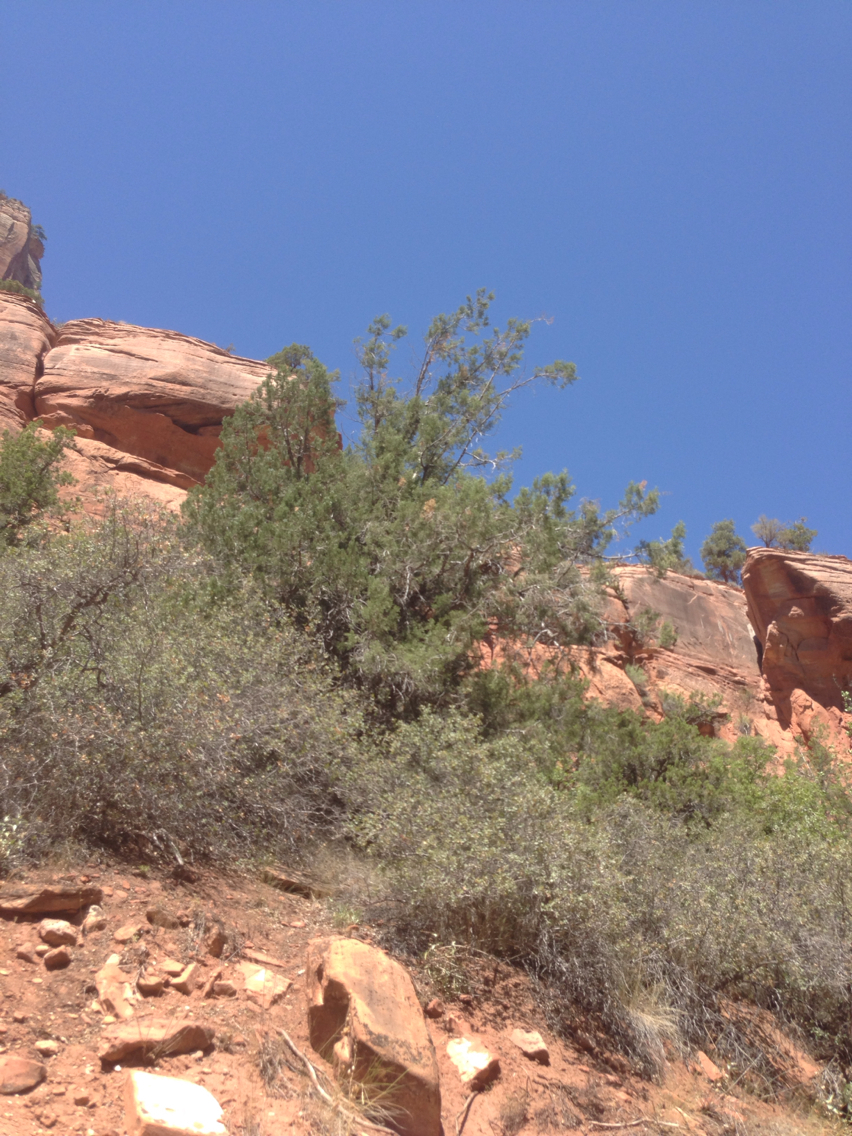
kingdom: Plantae
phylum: Tracheophyta
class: Pinopsida
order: Pinales
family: Cupressaceae
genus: Juniperus
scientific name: Juniperus osteosperma
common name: Utah juniper
